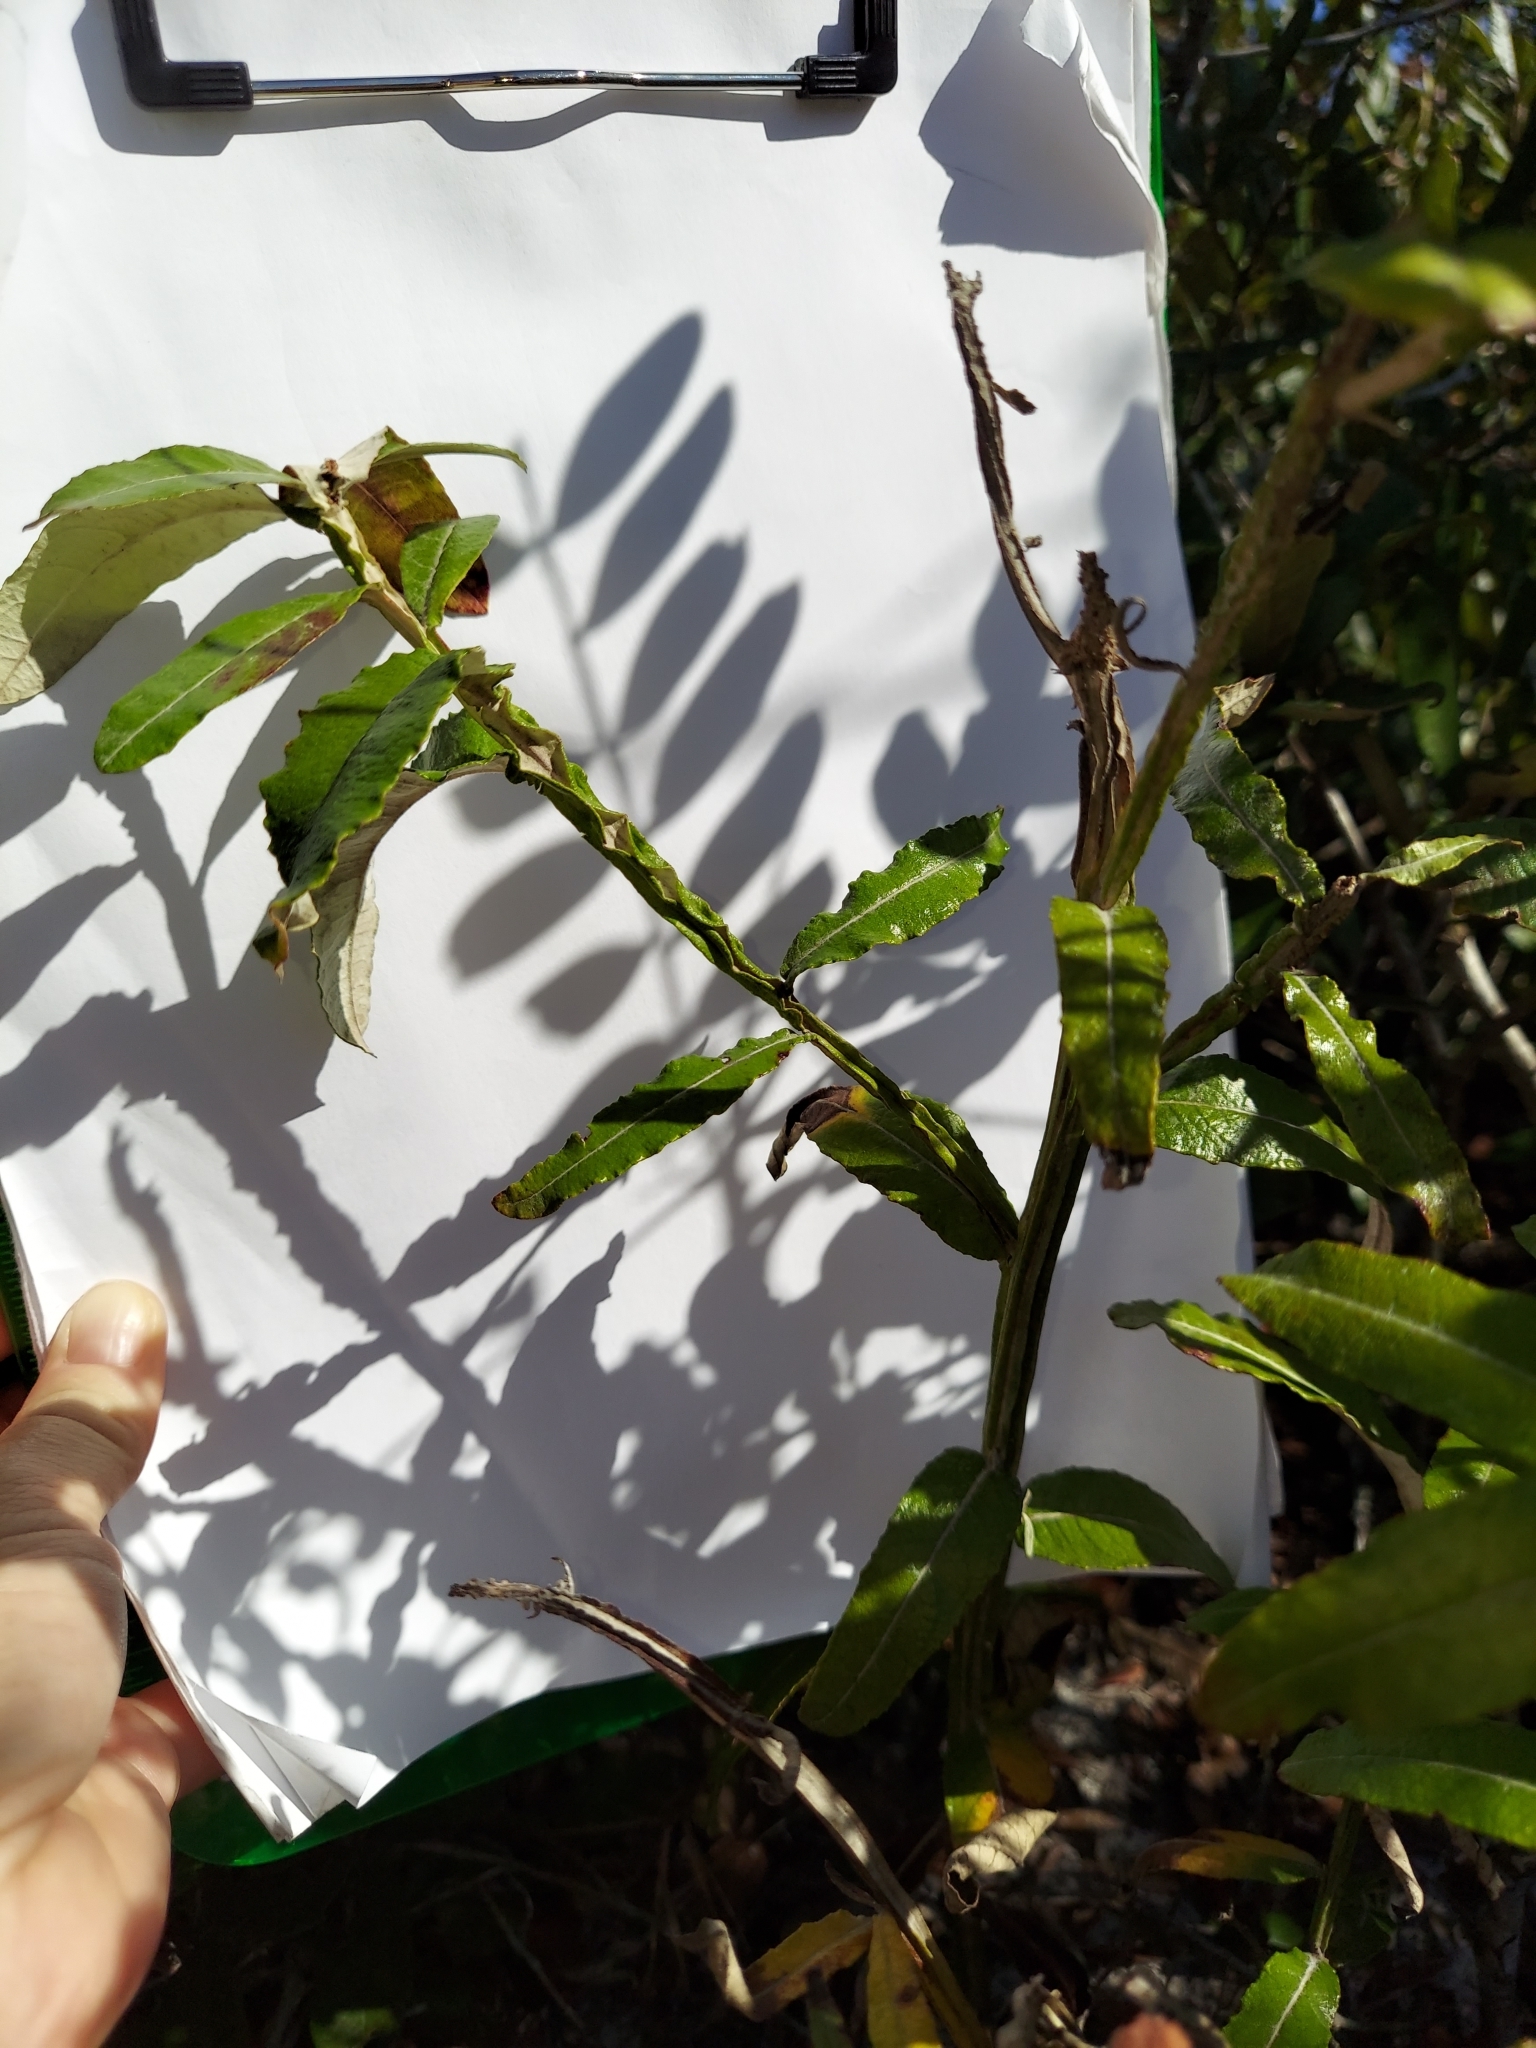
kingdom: Plantae
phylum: Tracheophyta
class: Magnoliopsida
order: Asterales
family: Asteraceae
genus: Pterocaulon
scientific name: Pterocaulon pycnostachyum
